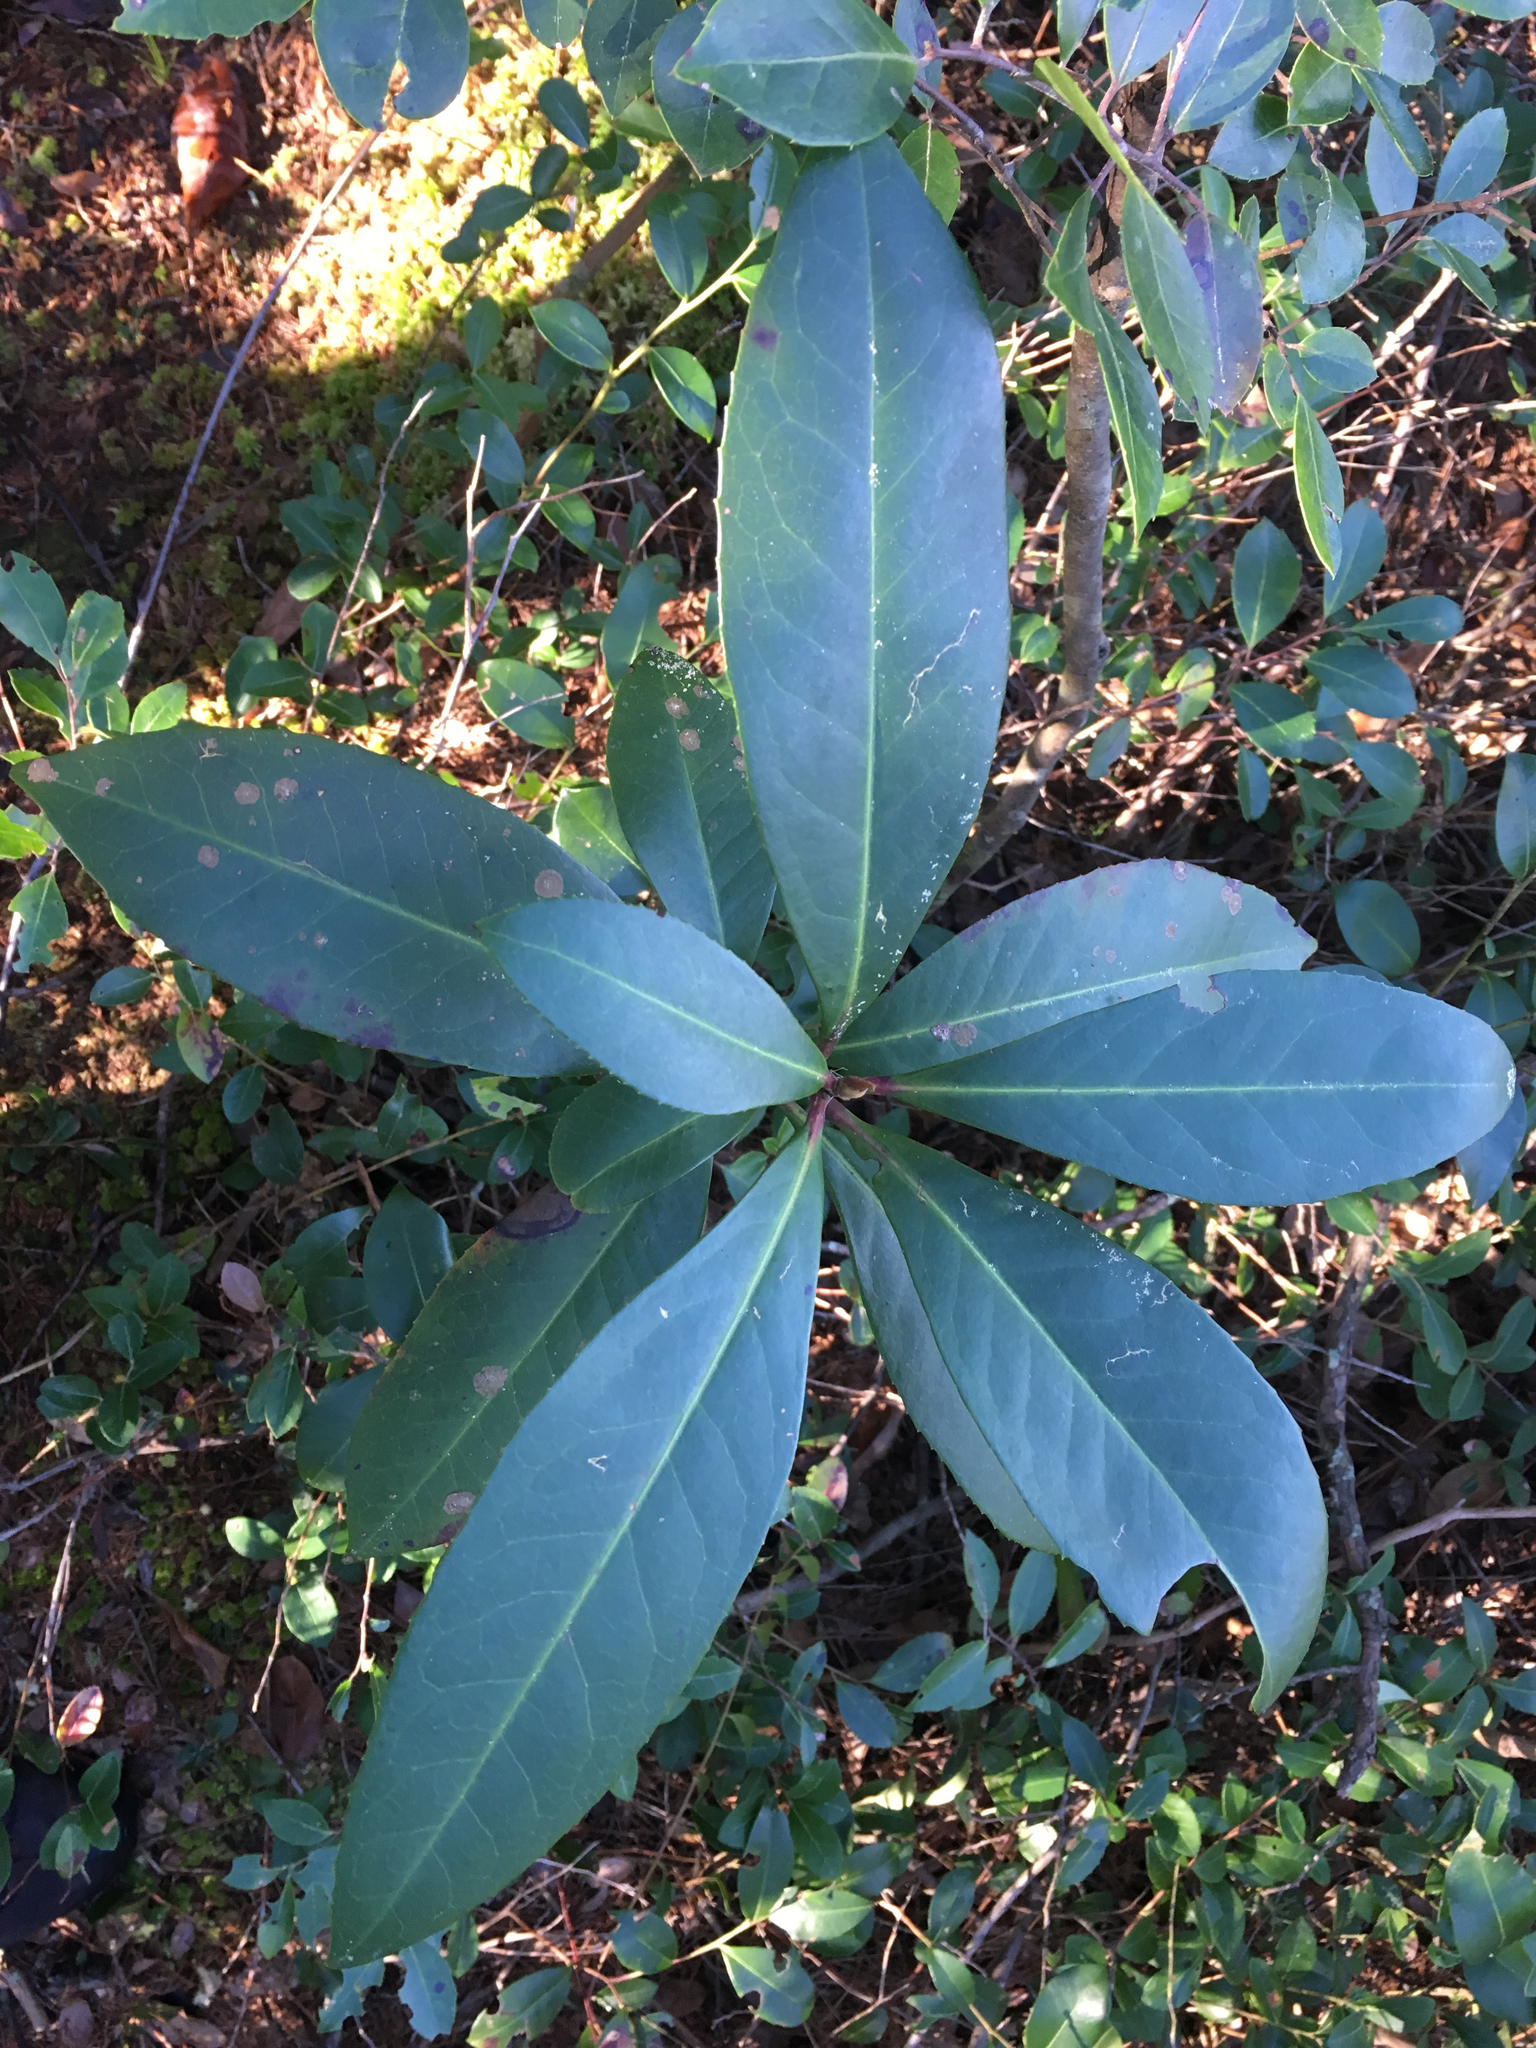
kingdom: Plantae
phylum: Tracheophyta
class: Magnoliopsida
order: Ericales
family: Theaceae
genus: Gordonia
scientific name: Gordonia lasianthus
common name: Loblolly bay
